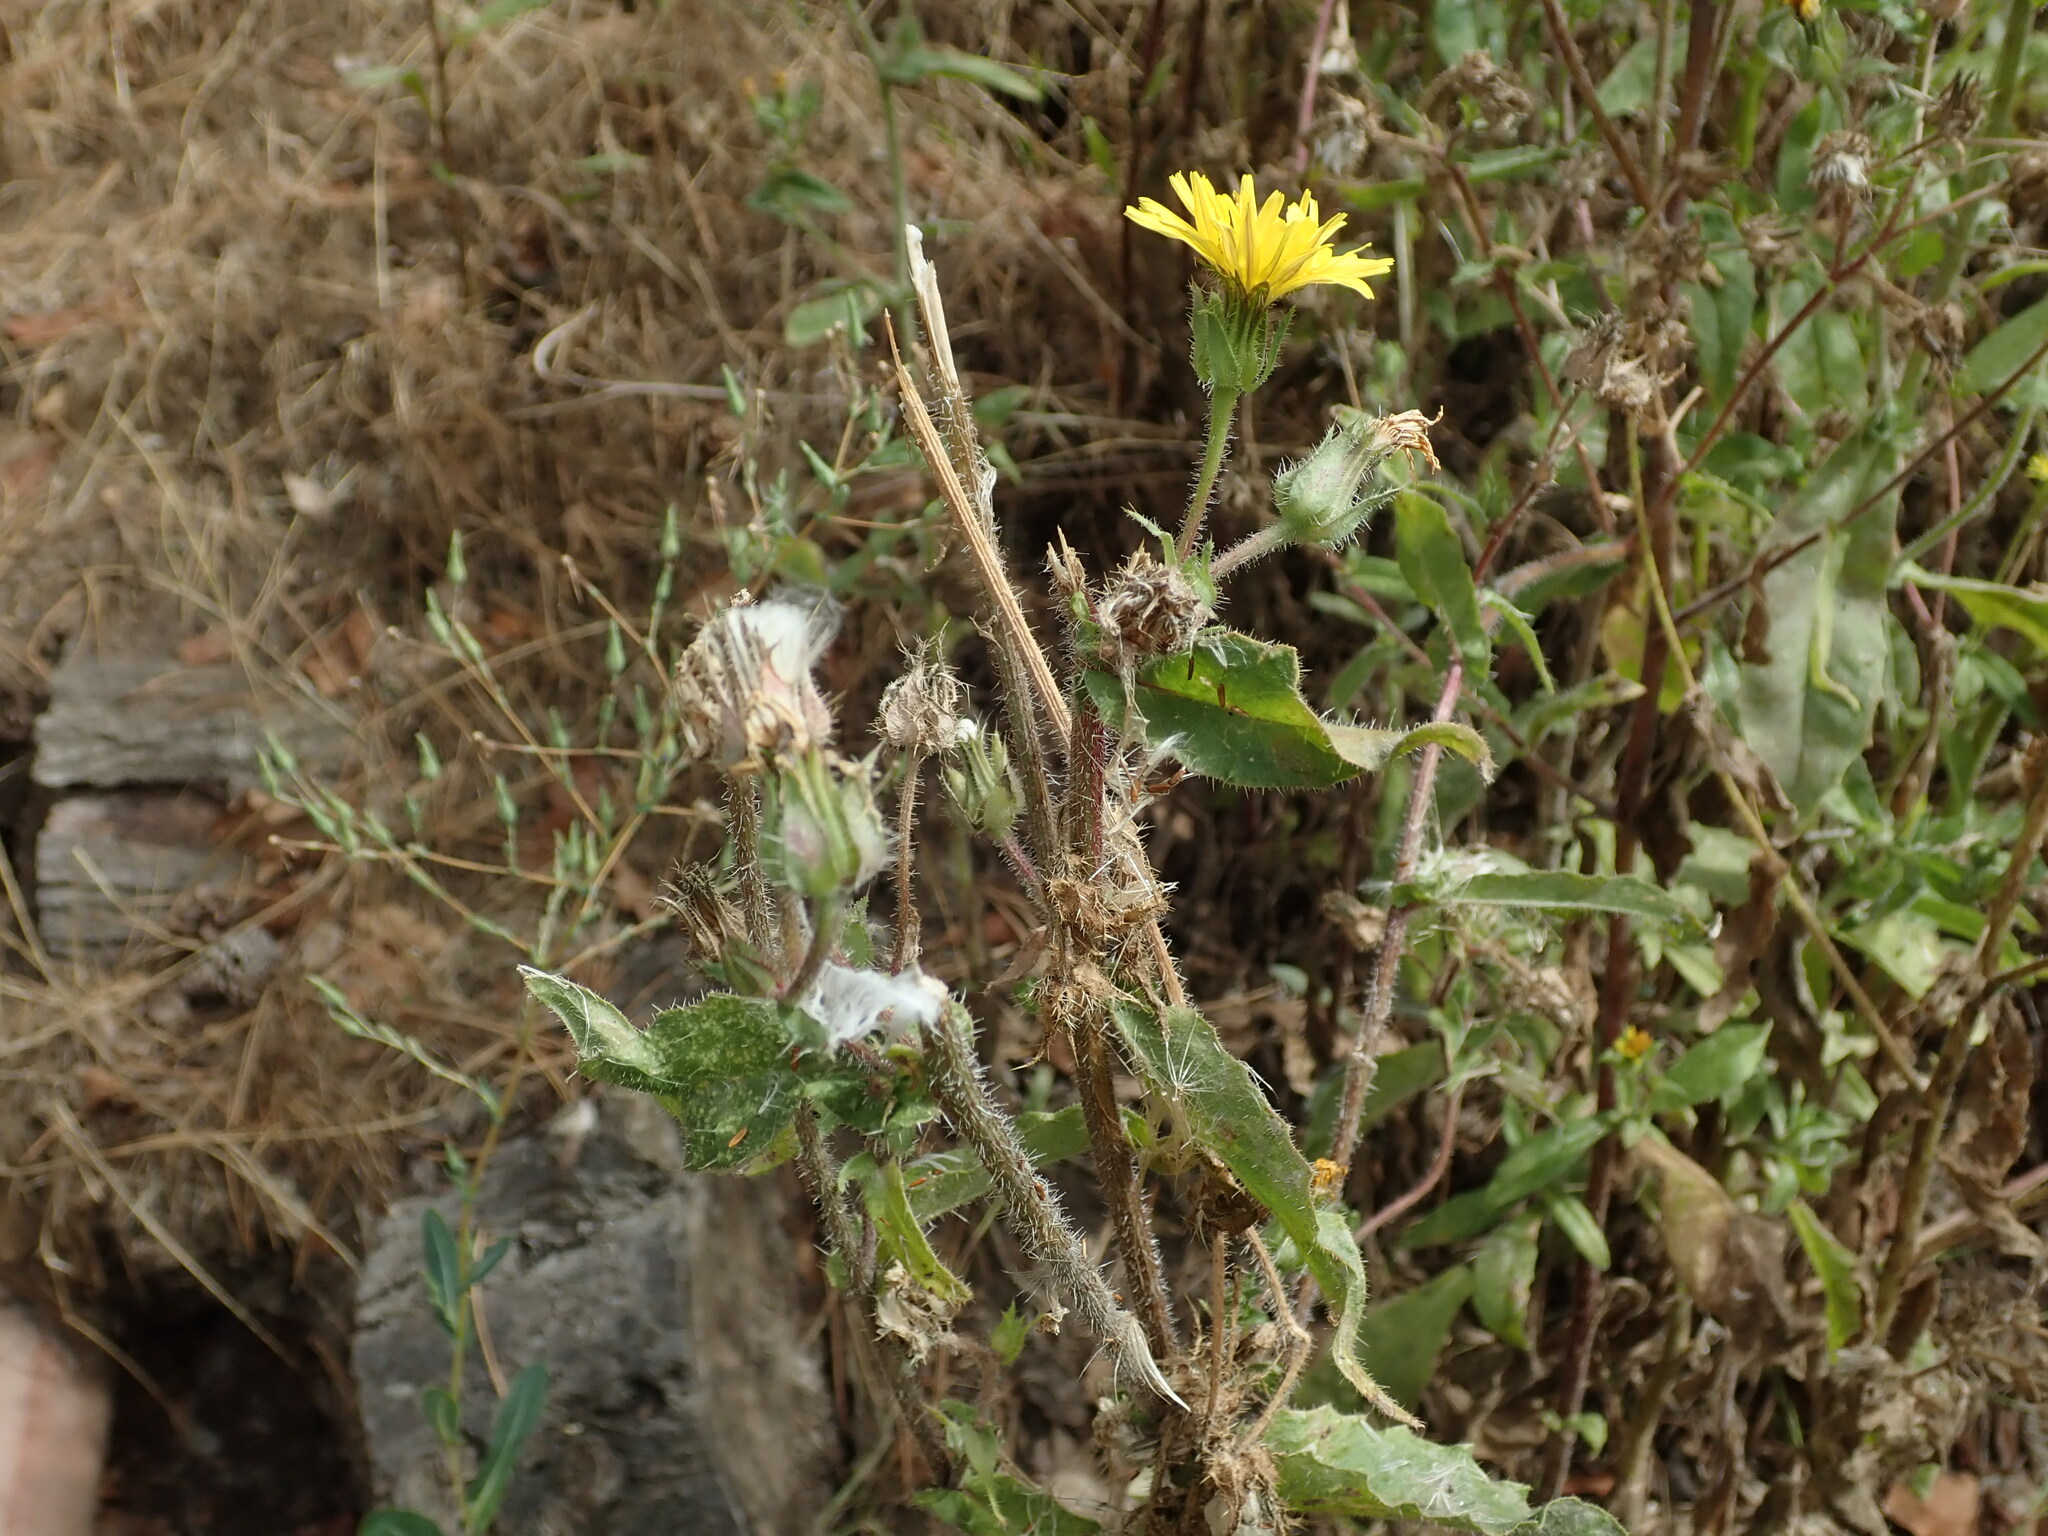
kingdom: Plantae
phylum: Tracheophyta
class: Magnoliopsida
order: Asterales
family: Asteraceae
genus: Helminthotheca
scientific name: Helminthotheca echioides
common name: Ox-tongue
